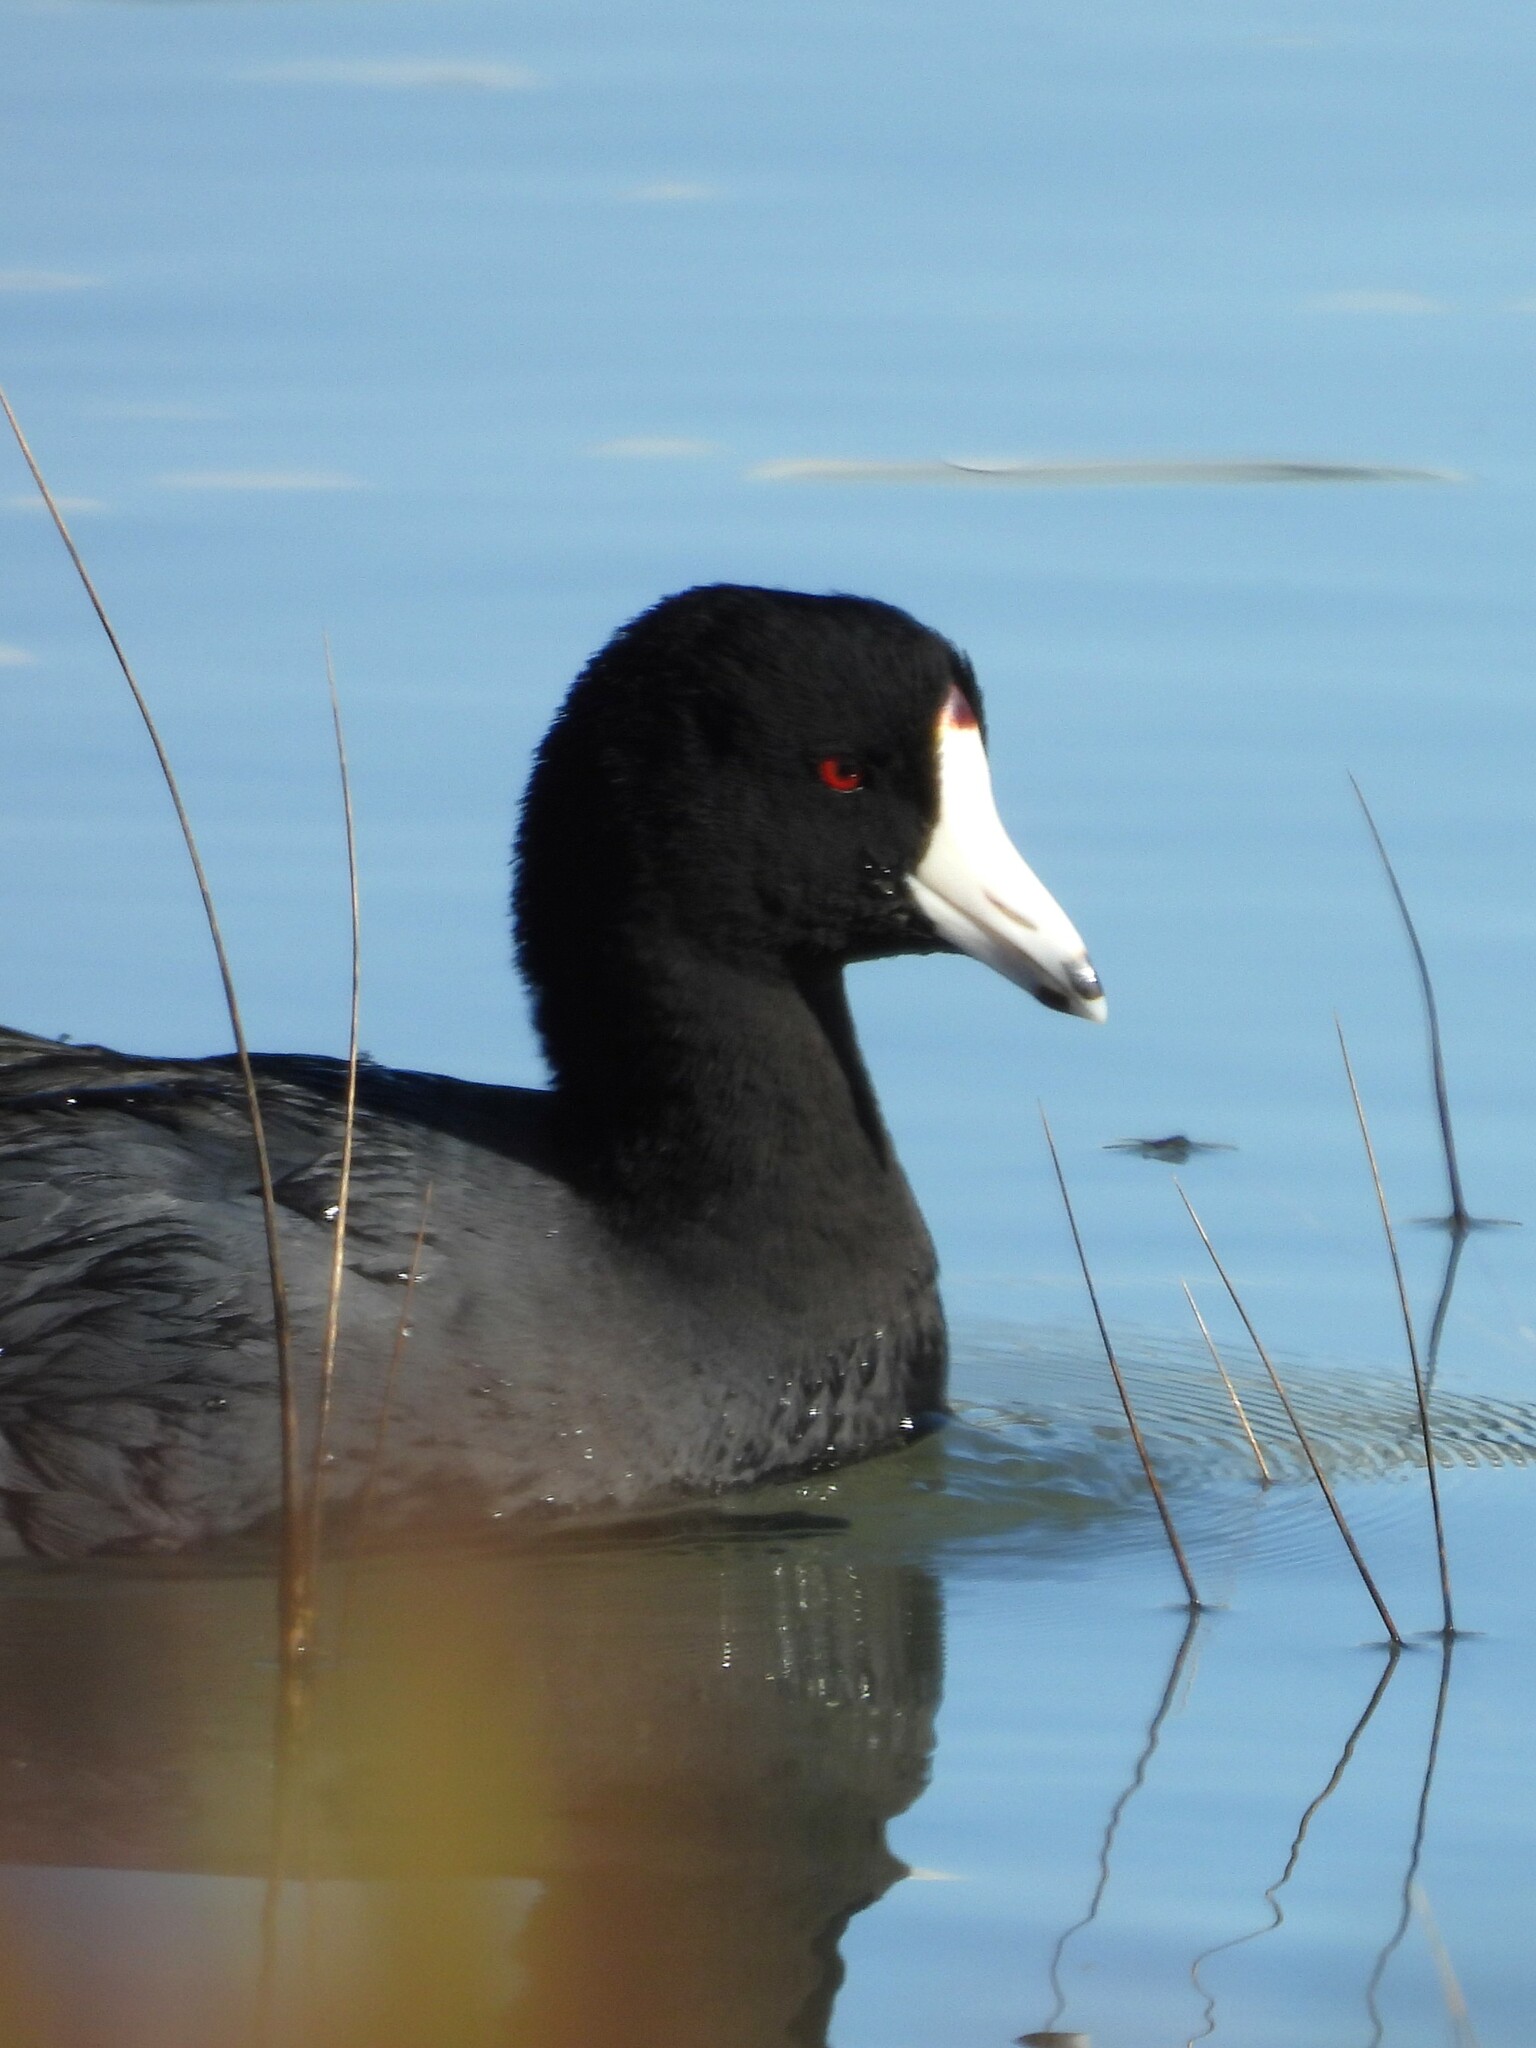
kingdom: Animalia
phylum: Chordata
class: Aves
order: Gruiformes
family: Rallidae
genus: Fulica
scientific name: Fulica americana
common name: American coot
